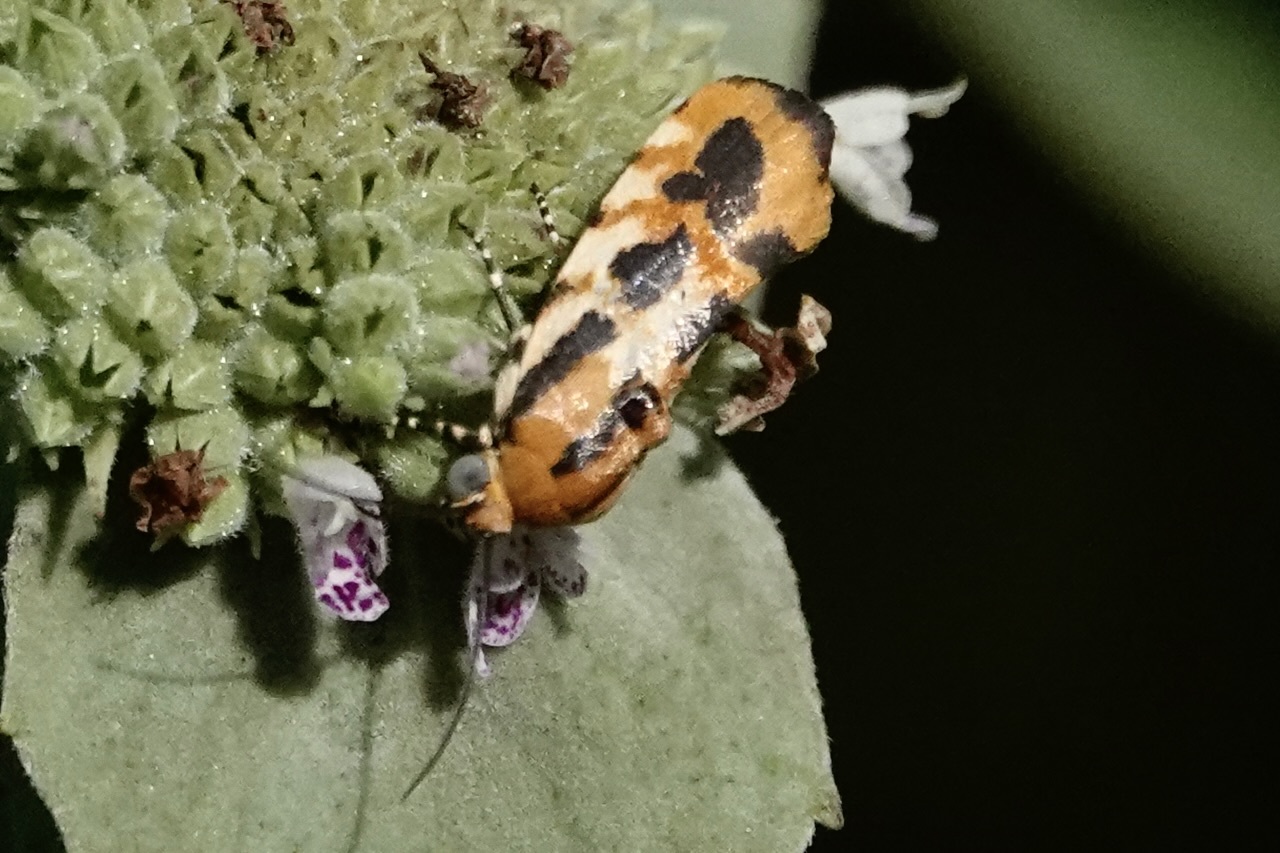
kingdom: Animalia
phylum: Arthropoda
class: Insecta
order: Lepidoptera
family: Noctuidae
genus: Acontia
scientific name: Acontia leo
